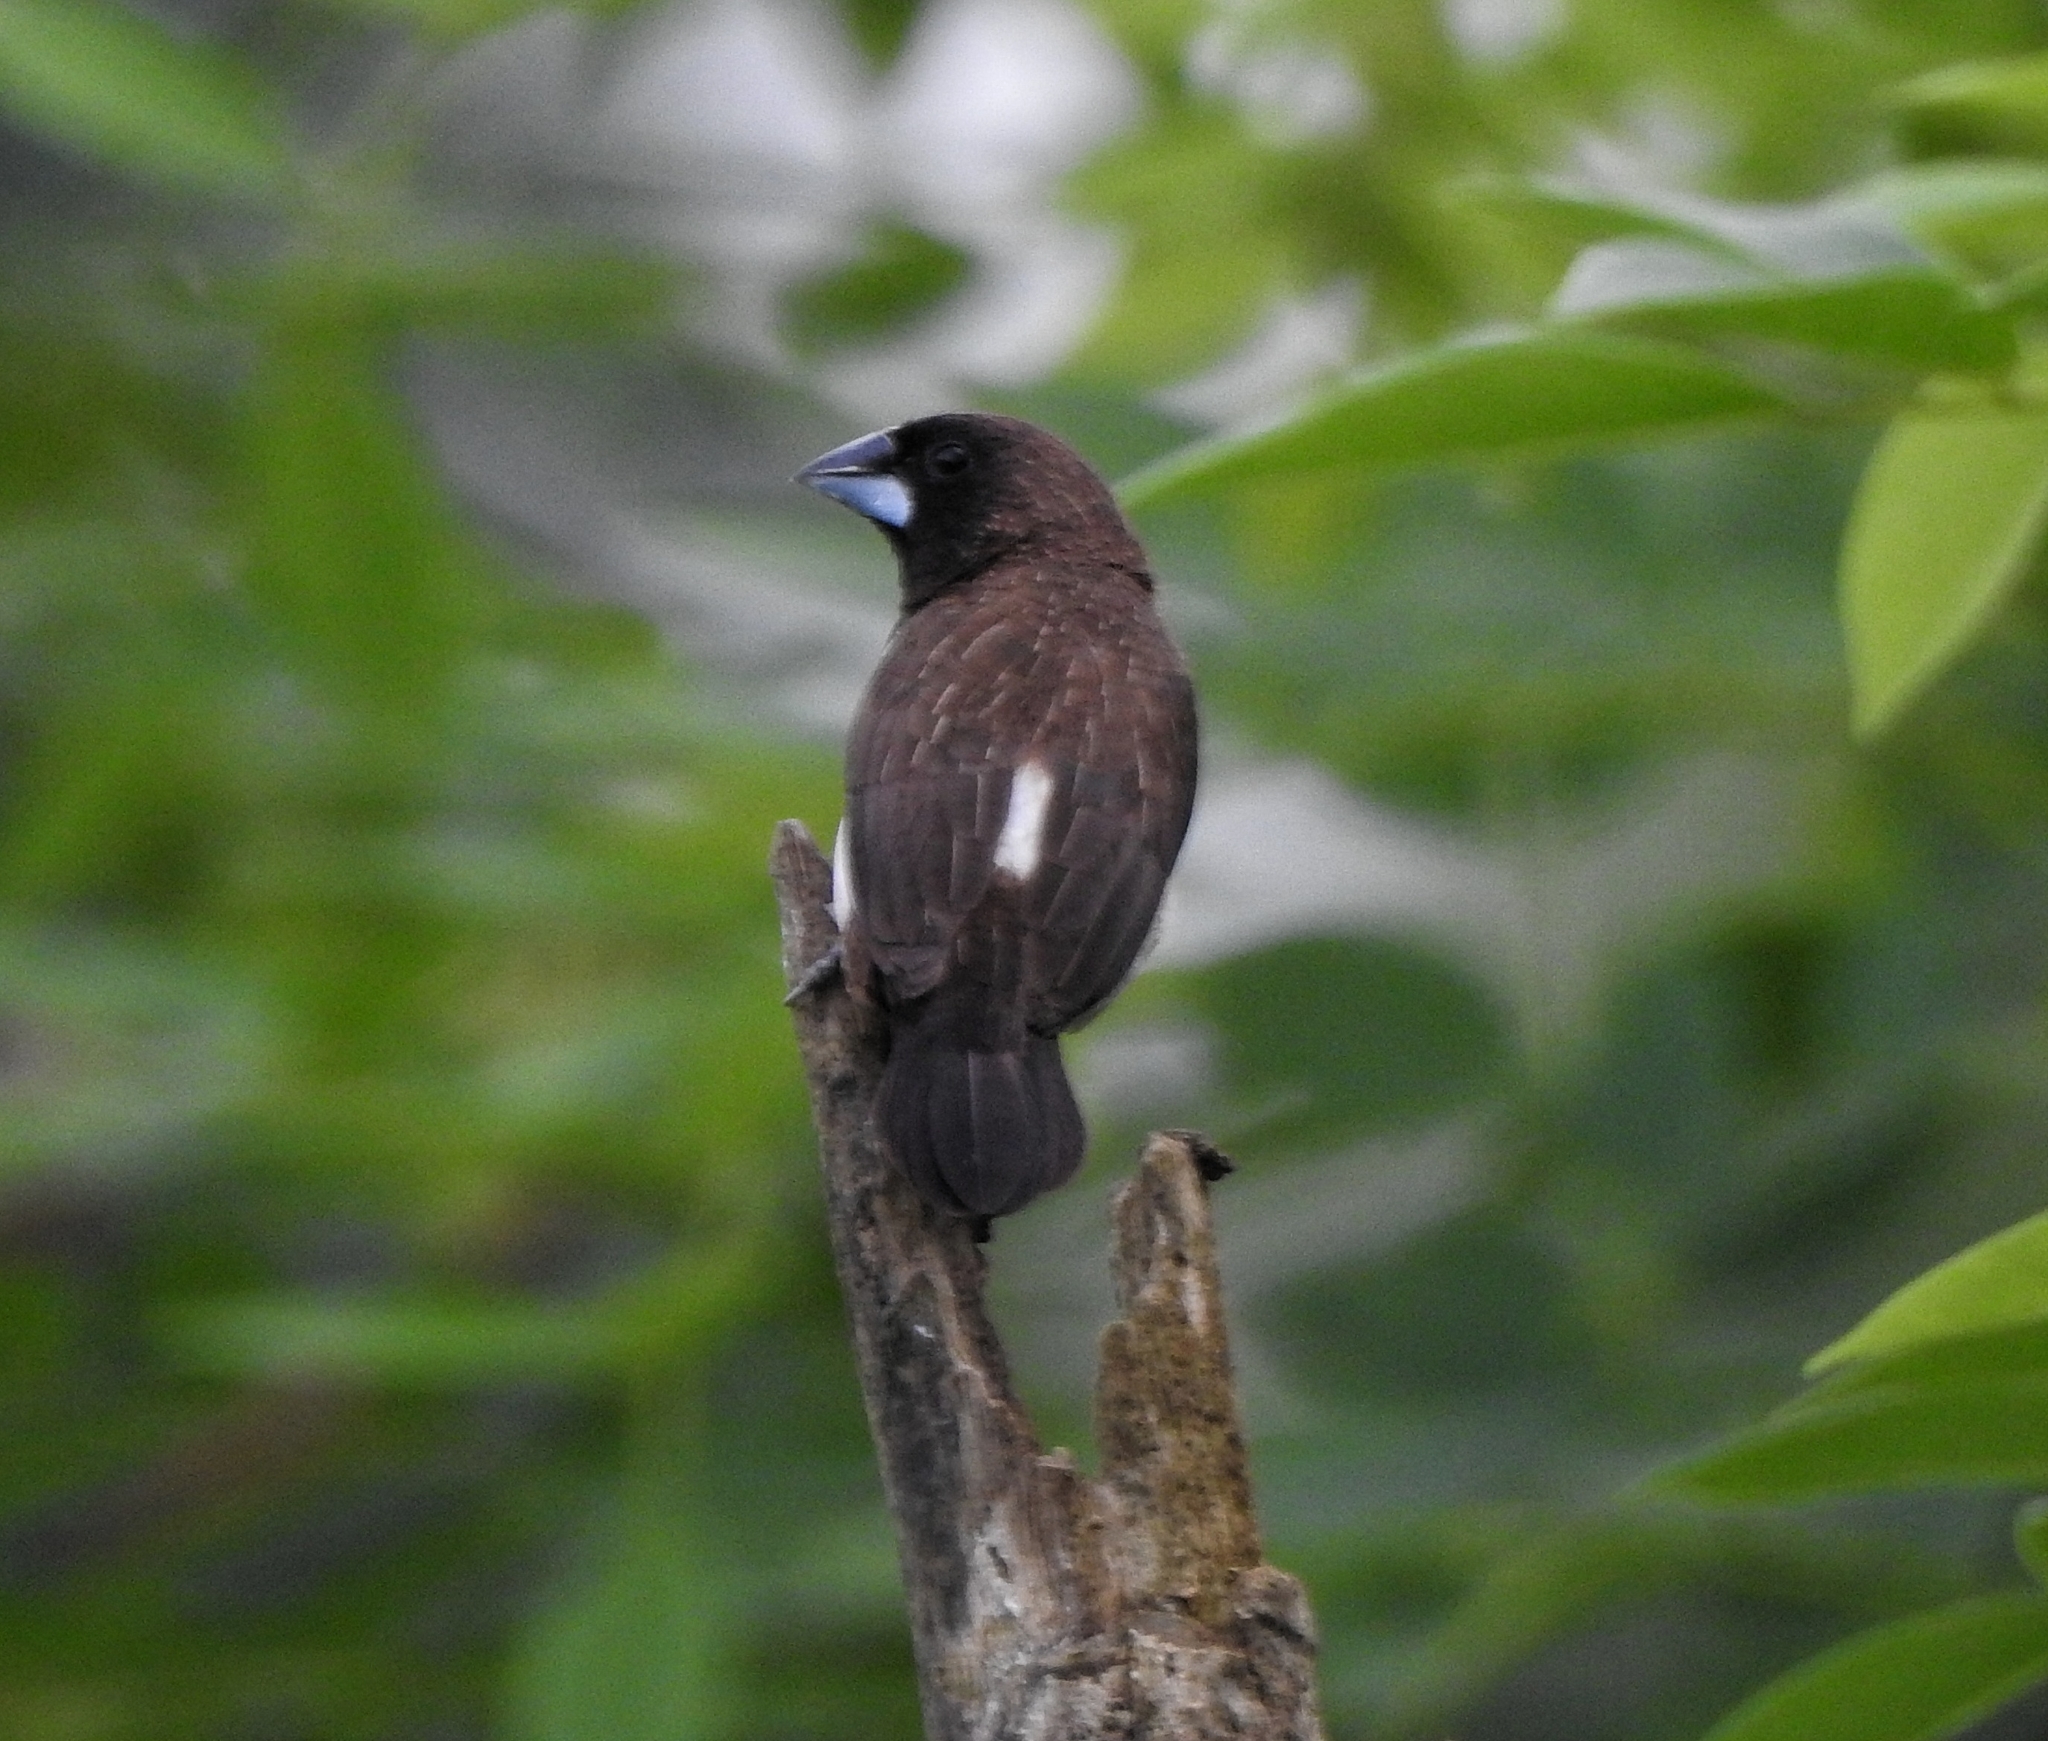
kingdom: Animalia
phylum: Chordata
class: Aves
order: Passeriformes
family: Estrildidae
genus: Lonchura
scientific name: Lonchura striata
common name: White-rumped munia
